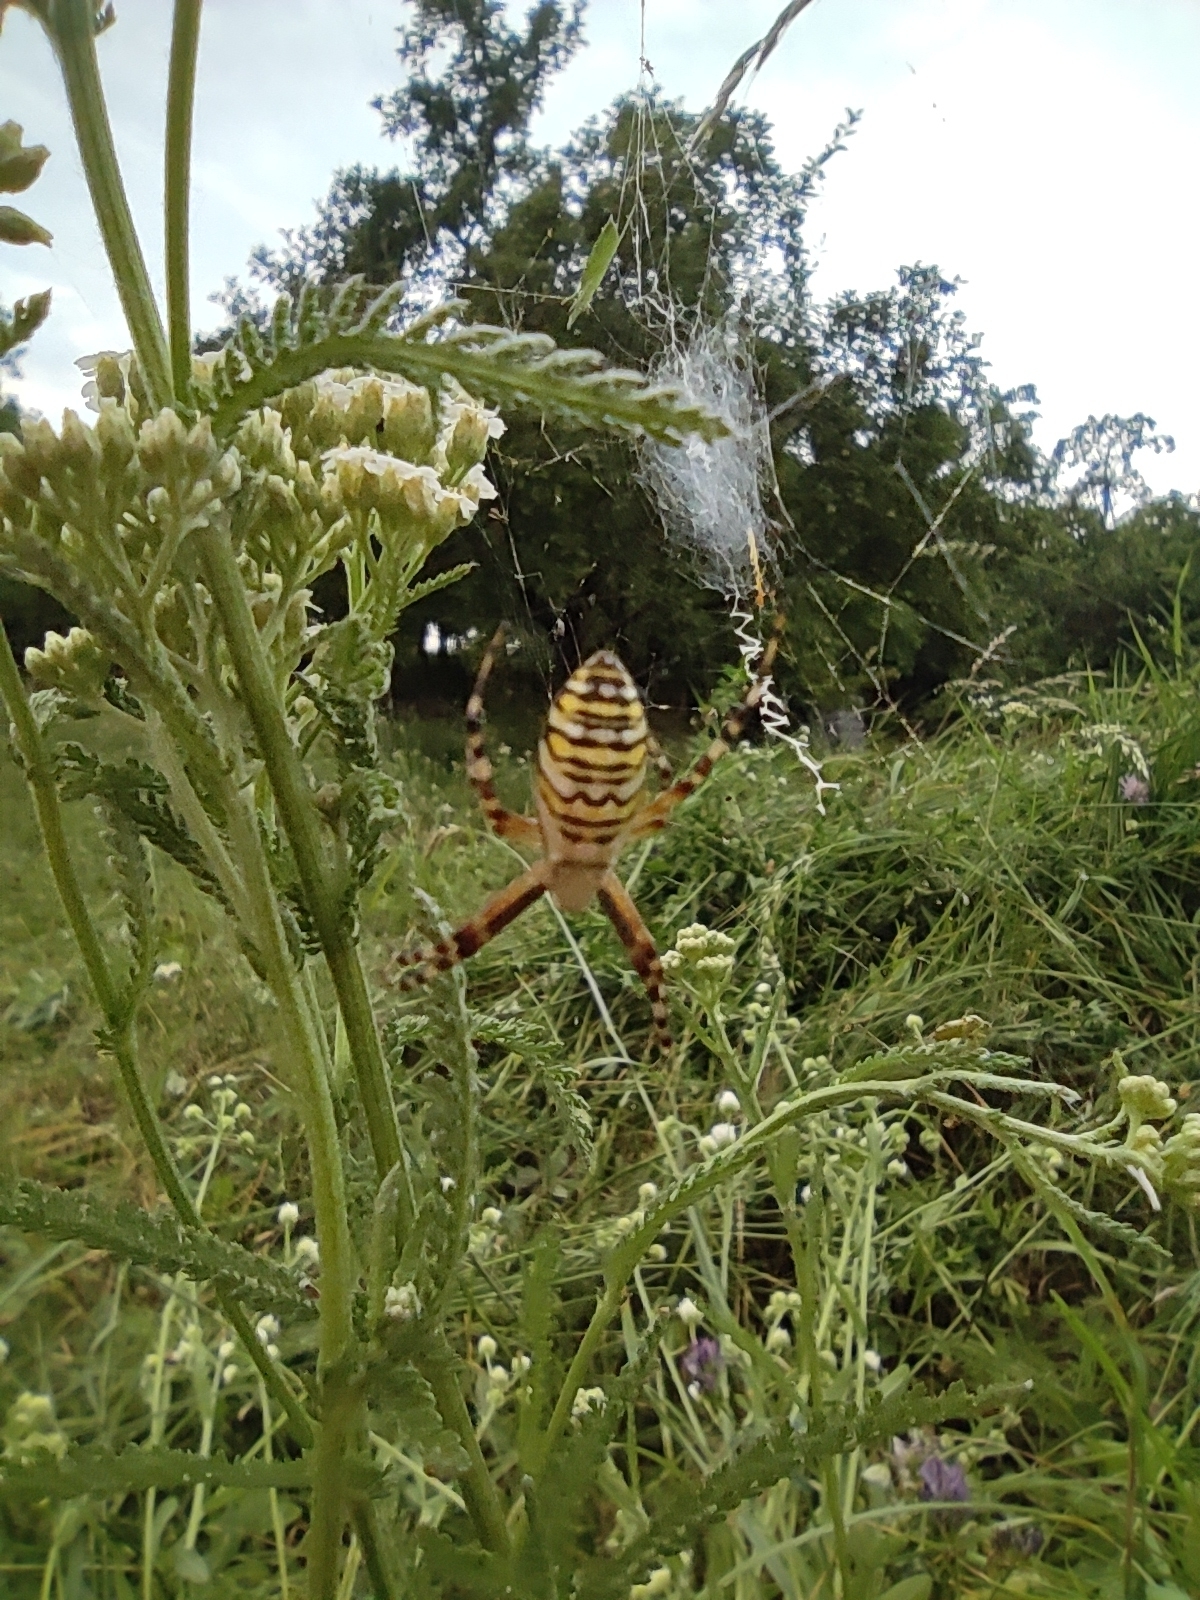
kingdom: Animalia
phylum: Arthropoda
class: Arachnida
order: Araneae
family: Araneidae
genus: Argiope
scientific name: Argiope bruennichi
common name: Wasp spider
